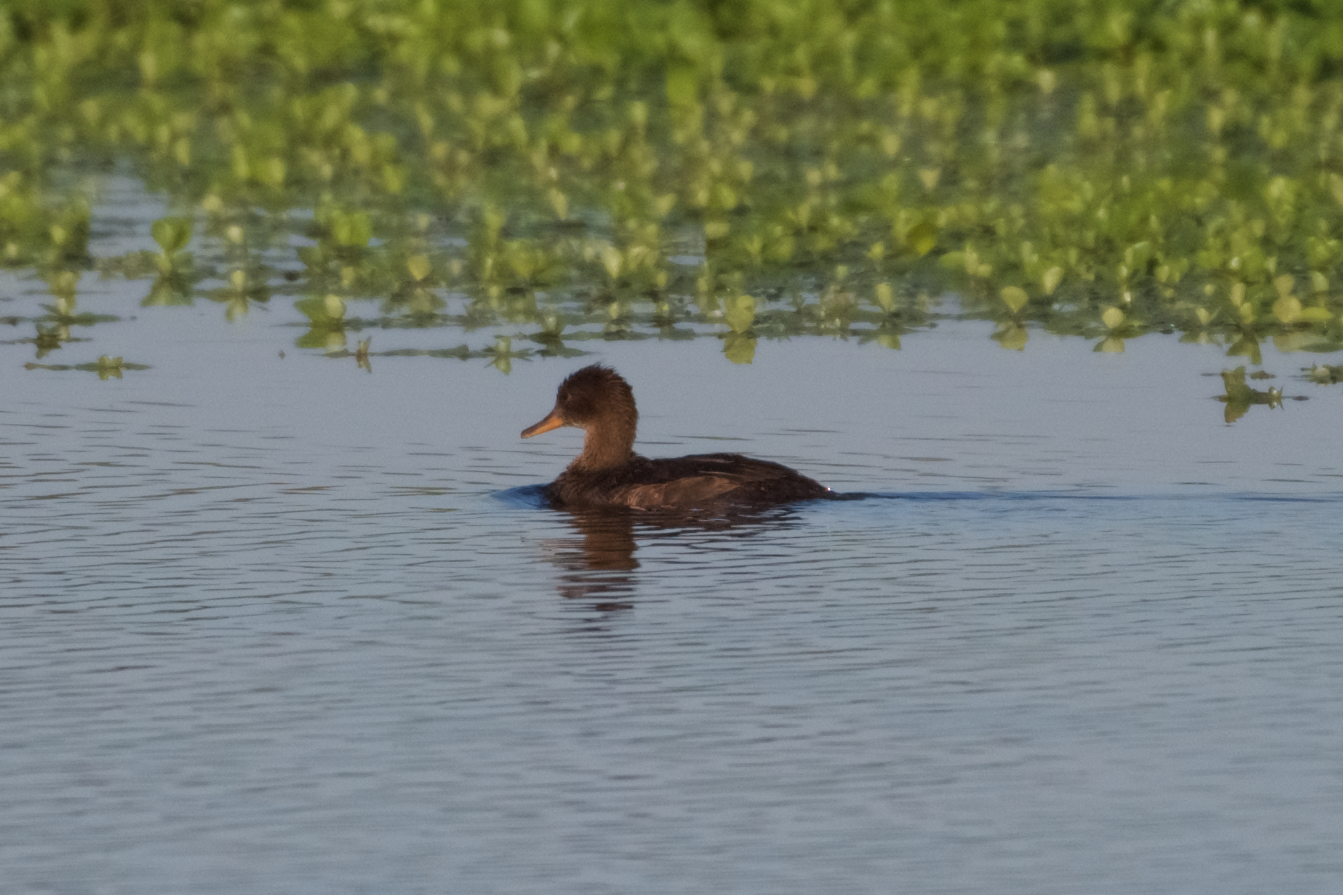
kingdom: Animalia
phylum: Chordata
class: Aves
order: Anseriformes
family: Anatidae
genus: Lophodytes
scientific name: Lophodytes cucullatus
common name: Hooded merganser
